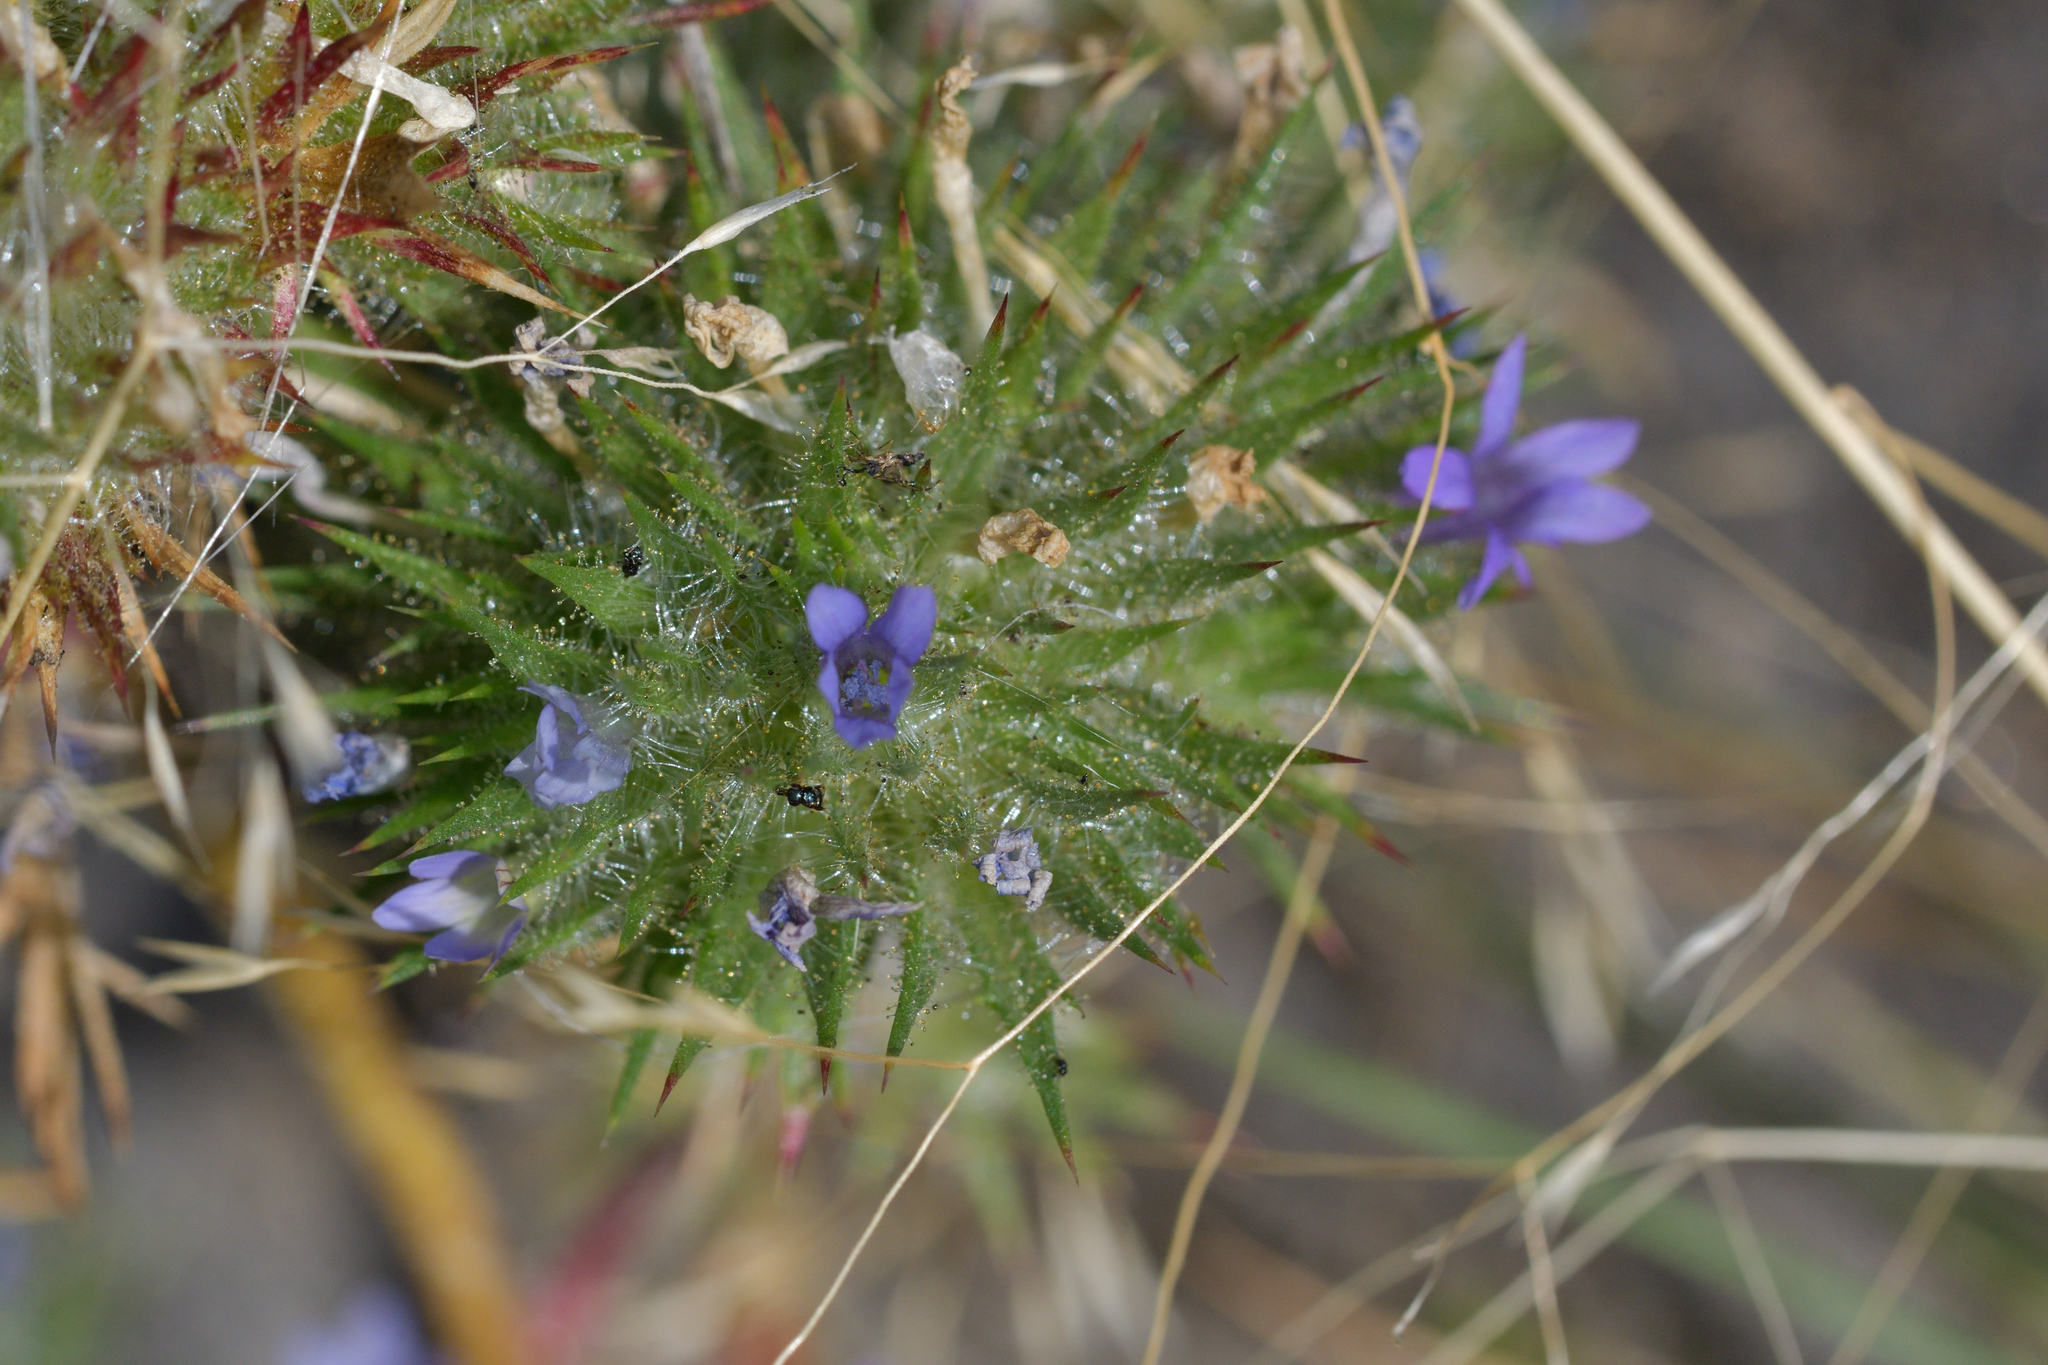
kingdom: Plantae
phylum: Tracheophyta
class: Magnoliopsida
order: Ericales
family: Polemoniaceae
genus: Navarretia
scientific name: Navarretia squarrosa
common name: Skunkweed
